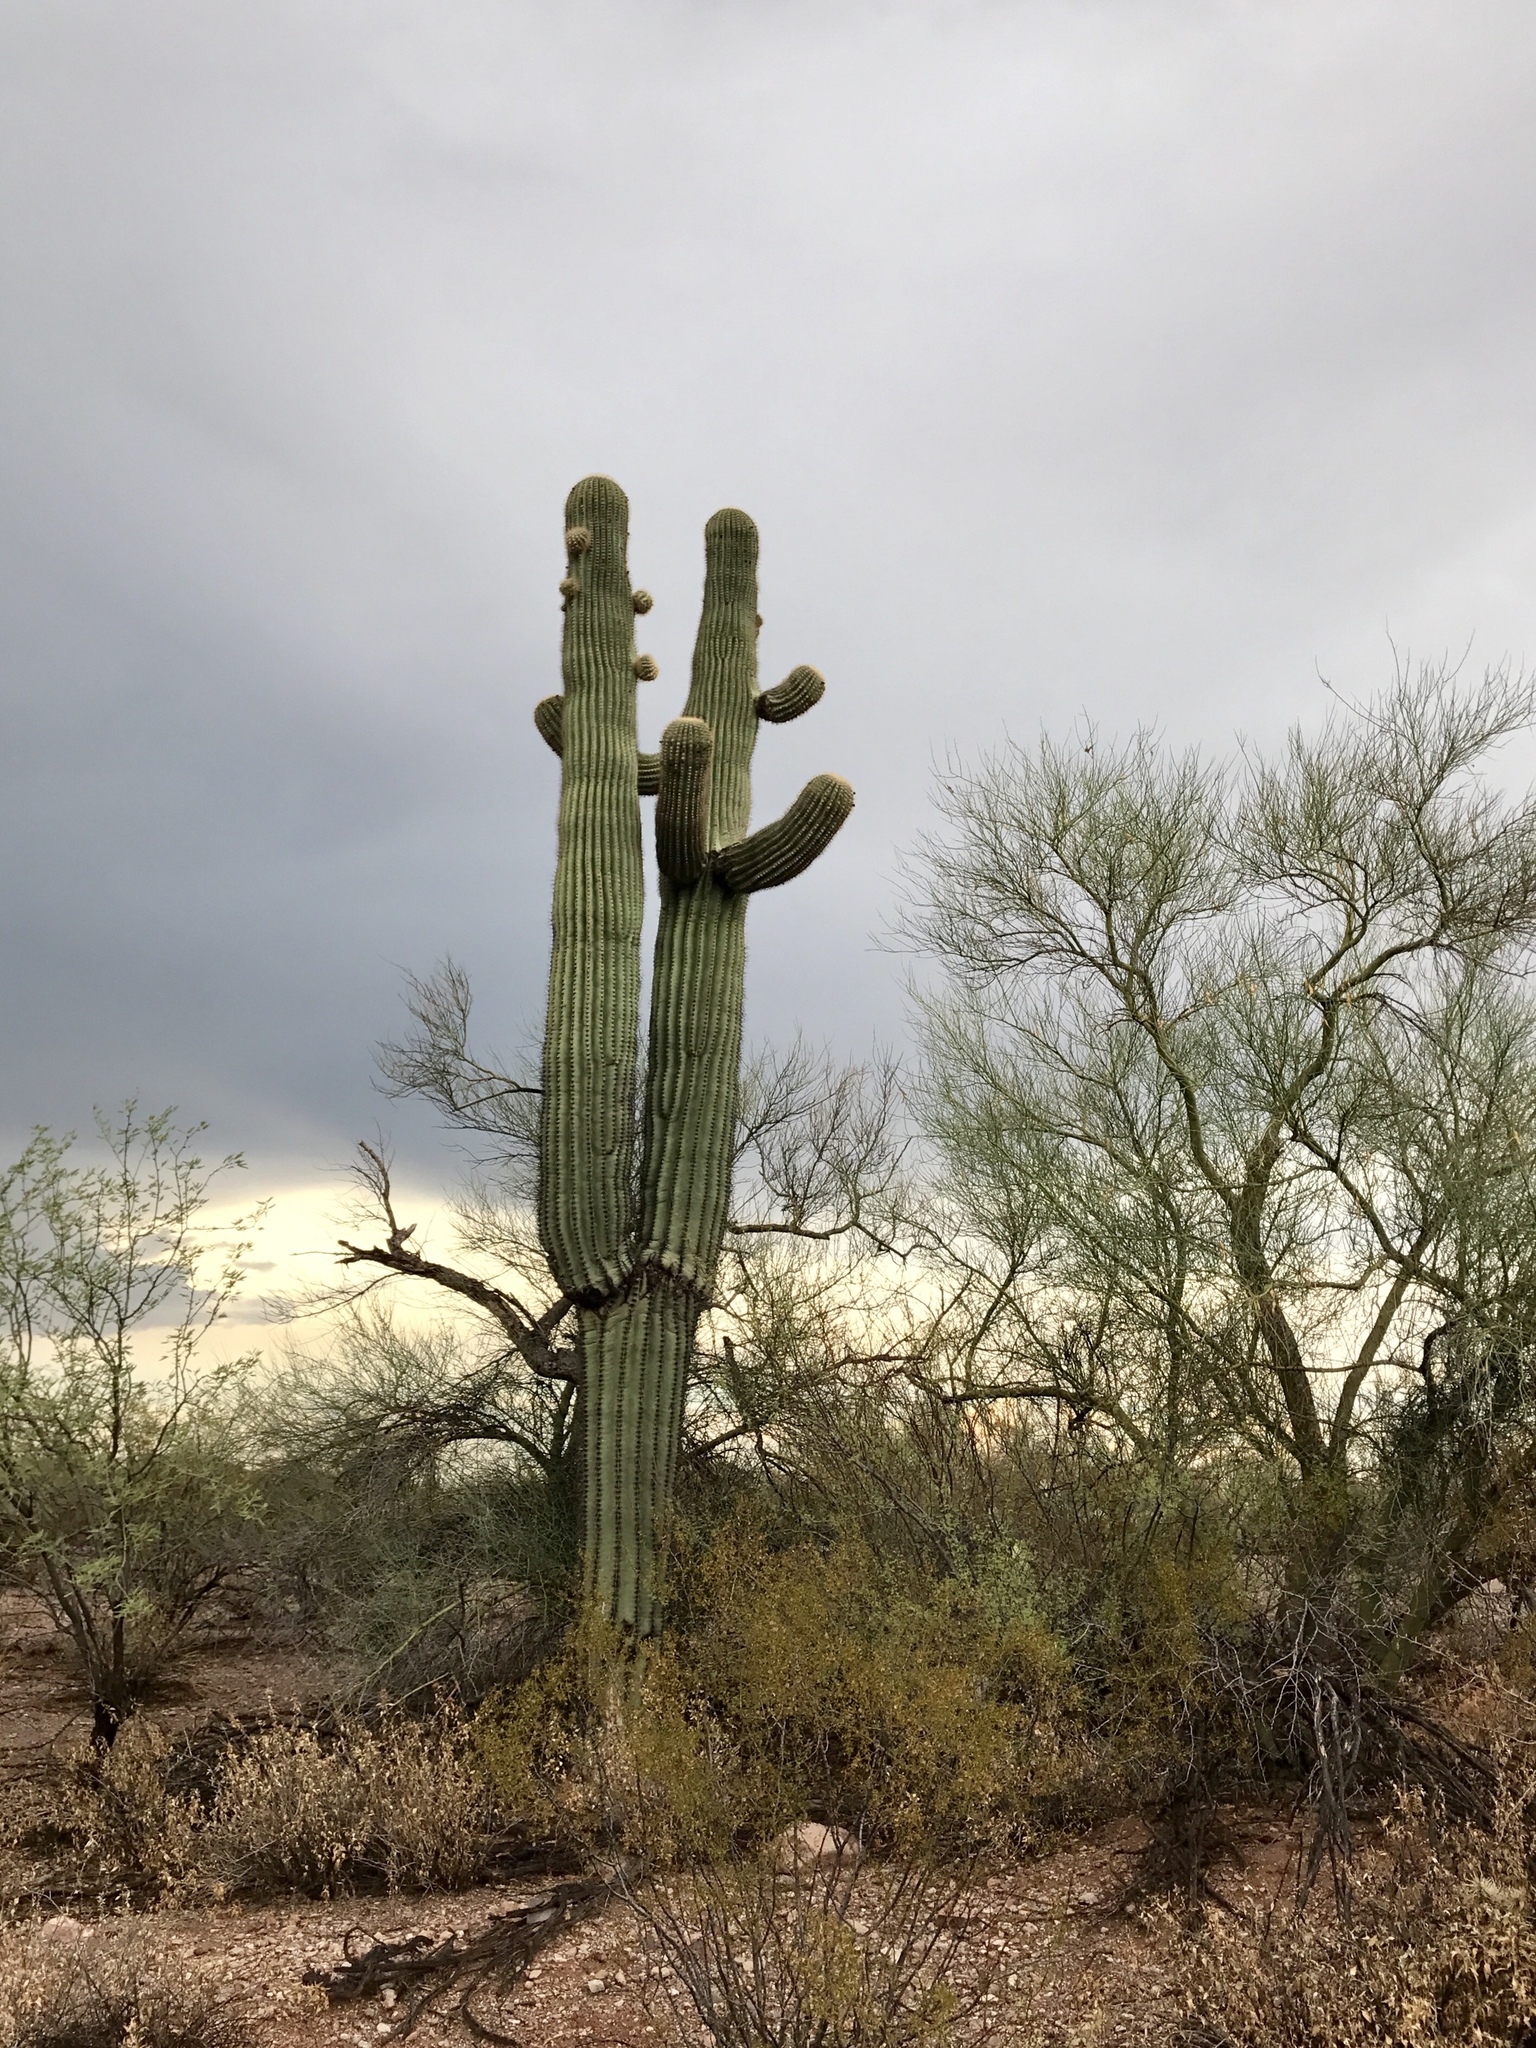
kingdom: Plantae
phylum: Tracheophyta
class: Magnoliopsida
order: Caryophyllales
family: Cactaceae
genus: Carnegiea
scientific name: Carnegiea gigantea
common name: Saguaro
